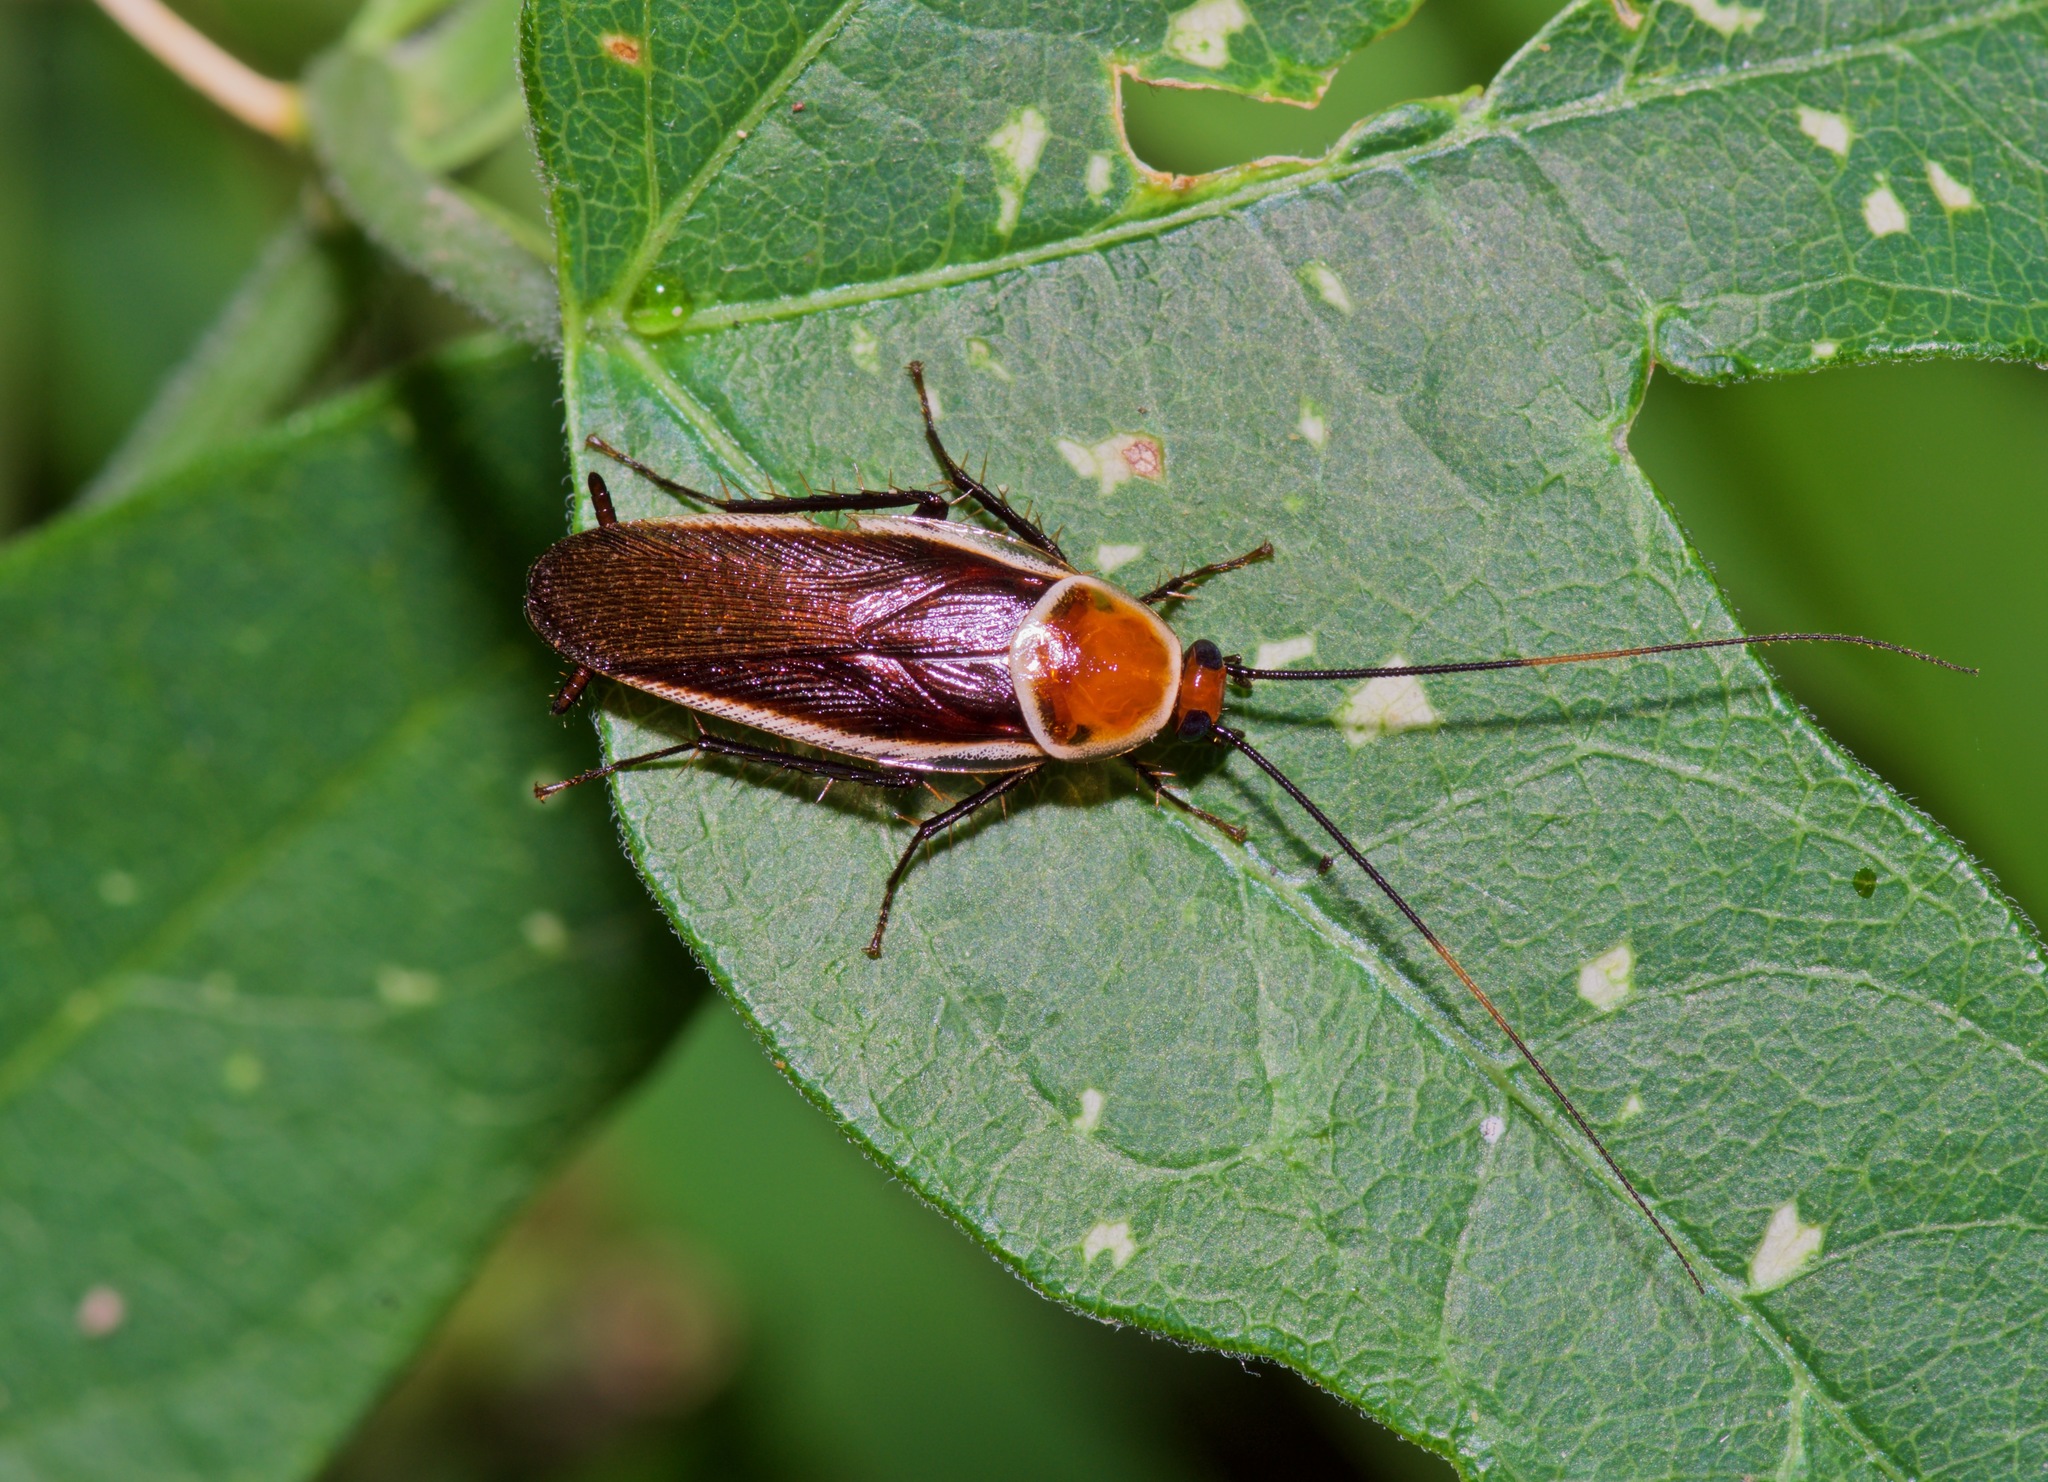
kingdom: Animalia
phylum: Arthropoda
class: Insecta
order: Blattodea
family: Ectobiidae
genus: Pseudomops
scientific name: Pseudomops septentrionalis
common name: Pale-bordered field cockroach
